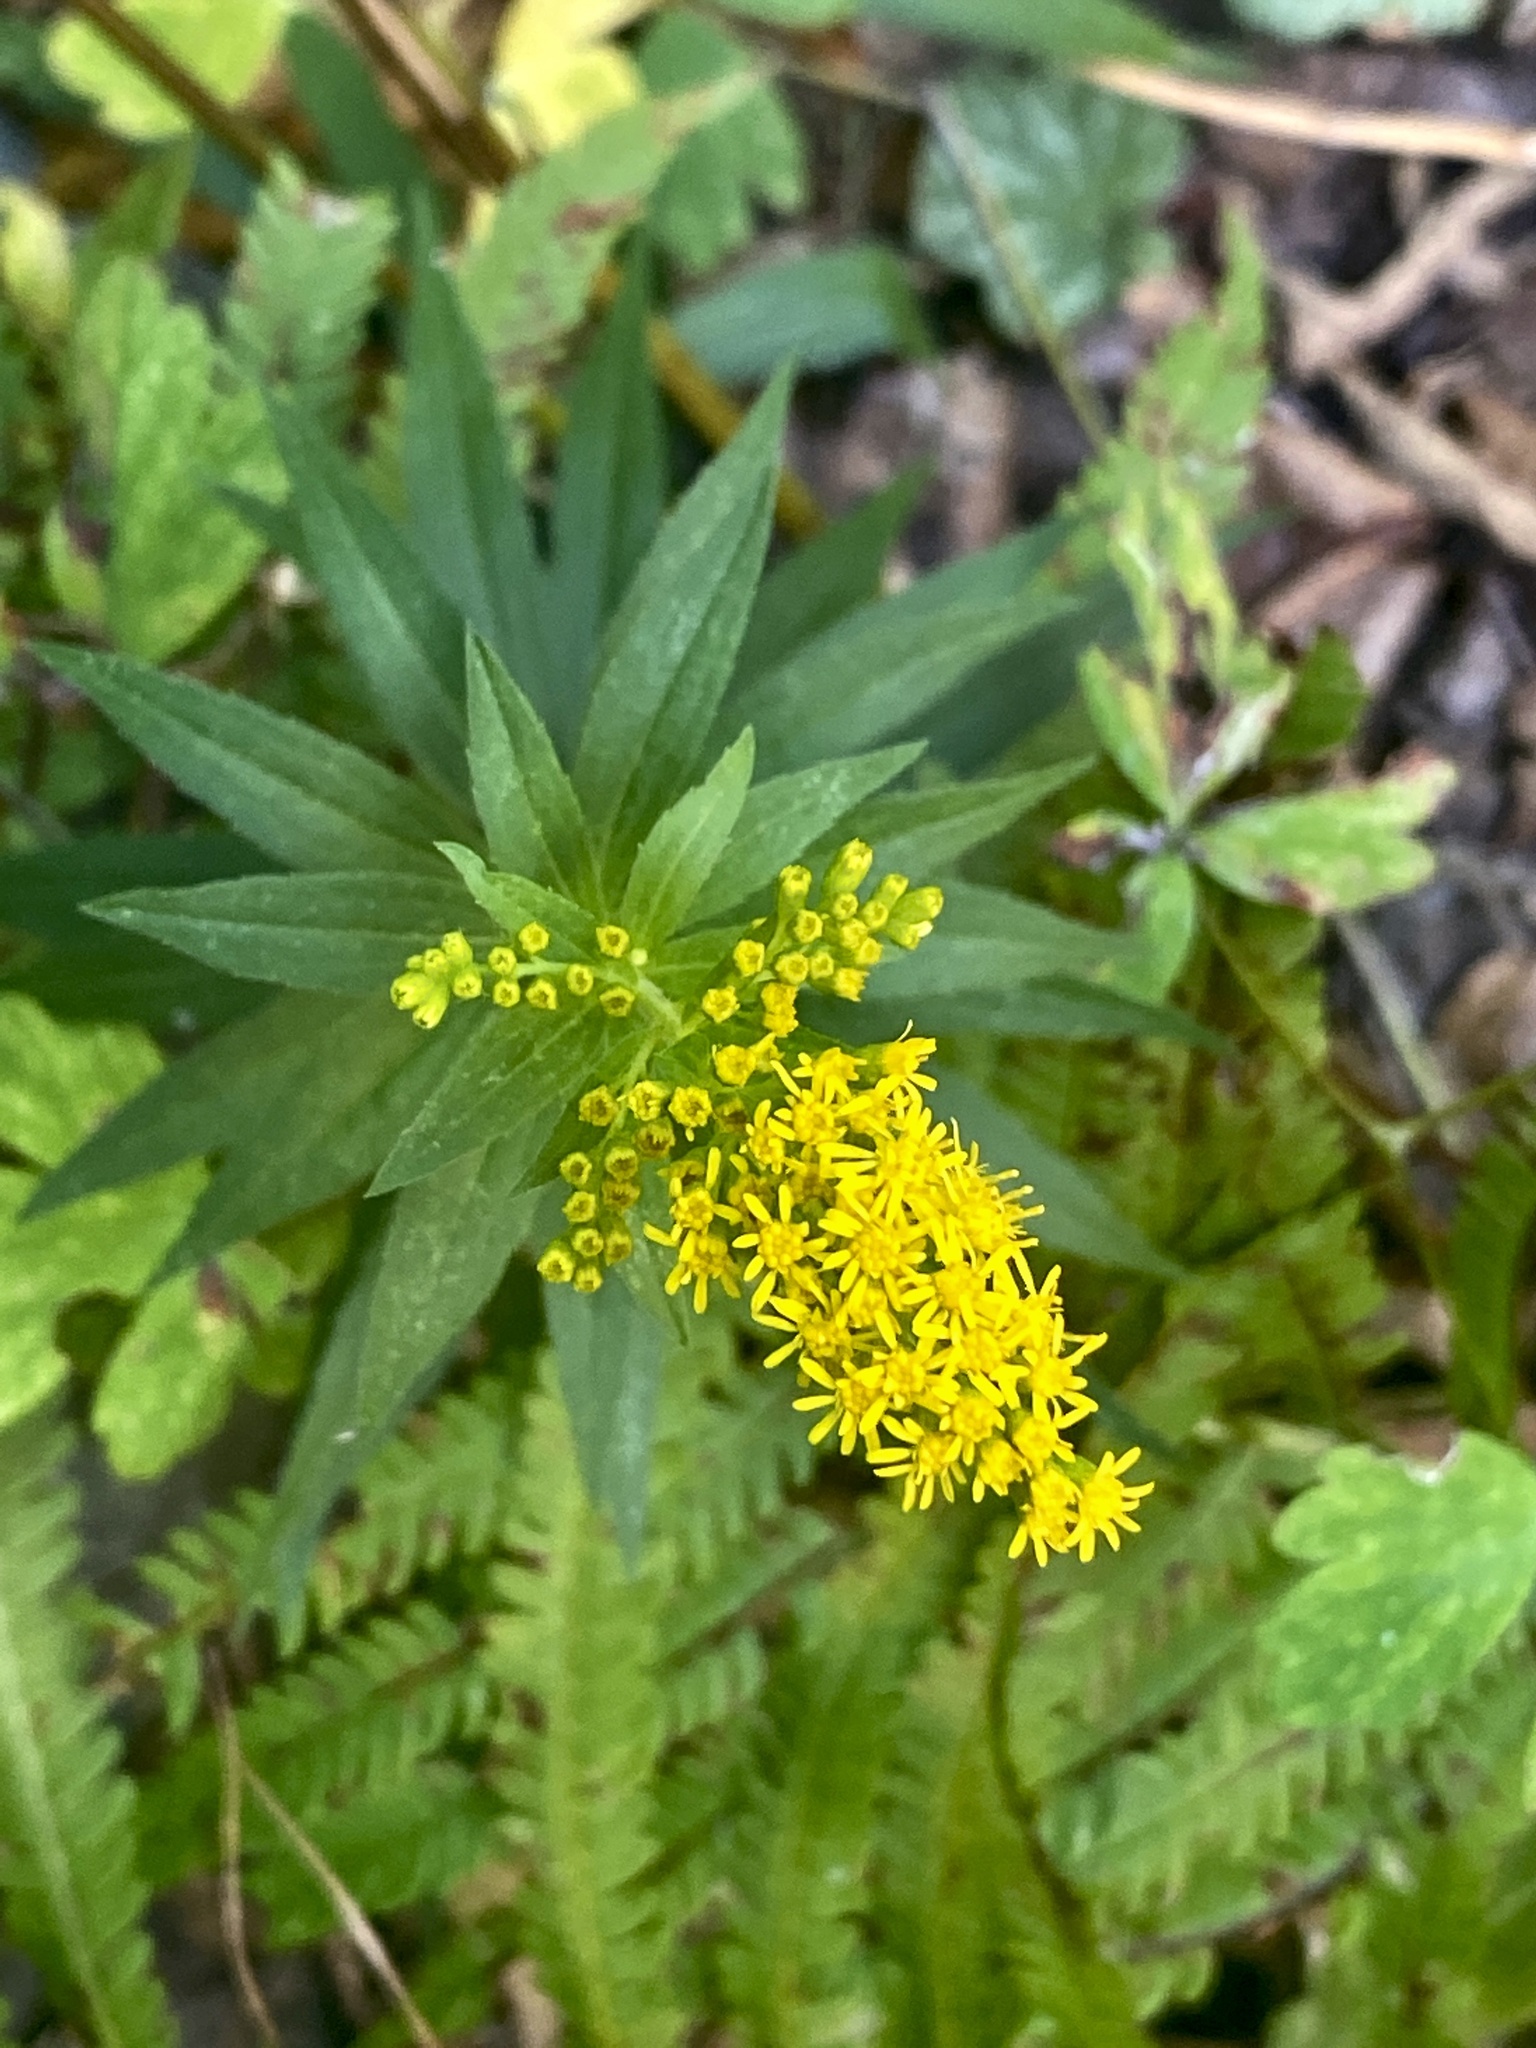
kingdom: Plantae
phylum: Tracheophyta
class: Magnoliopsida
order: Asterales
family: Asteraceae
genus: Solidago
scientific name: Solidago gigantea
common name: Giant goldenrod
